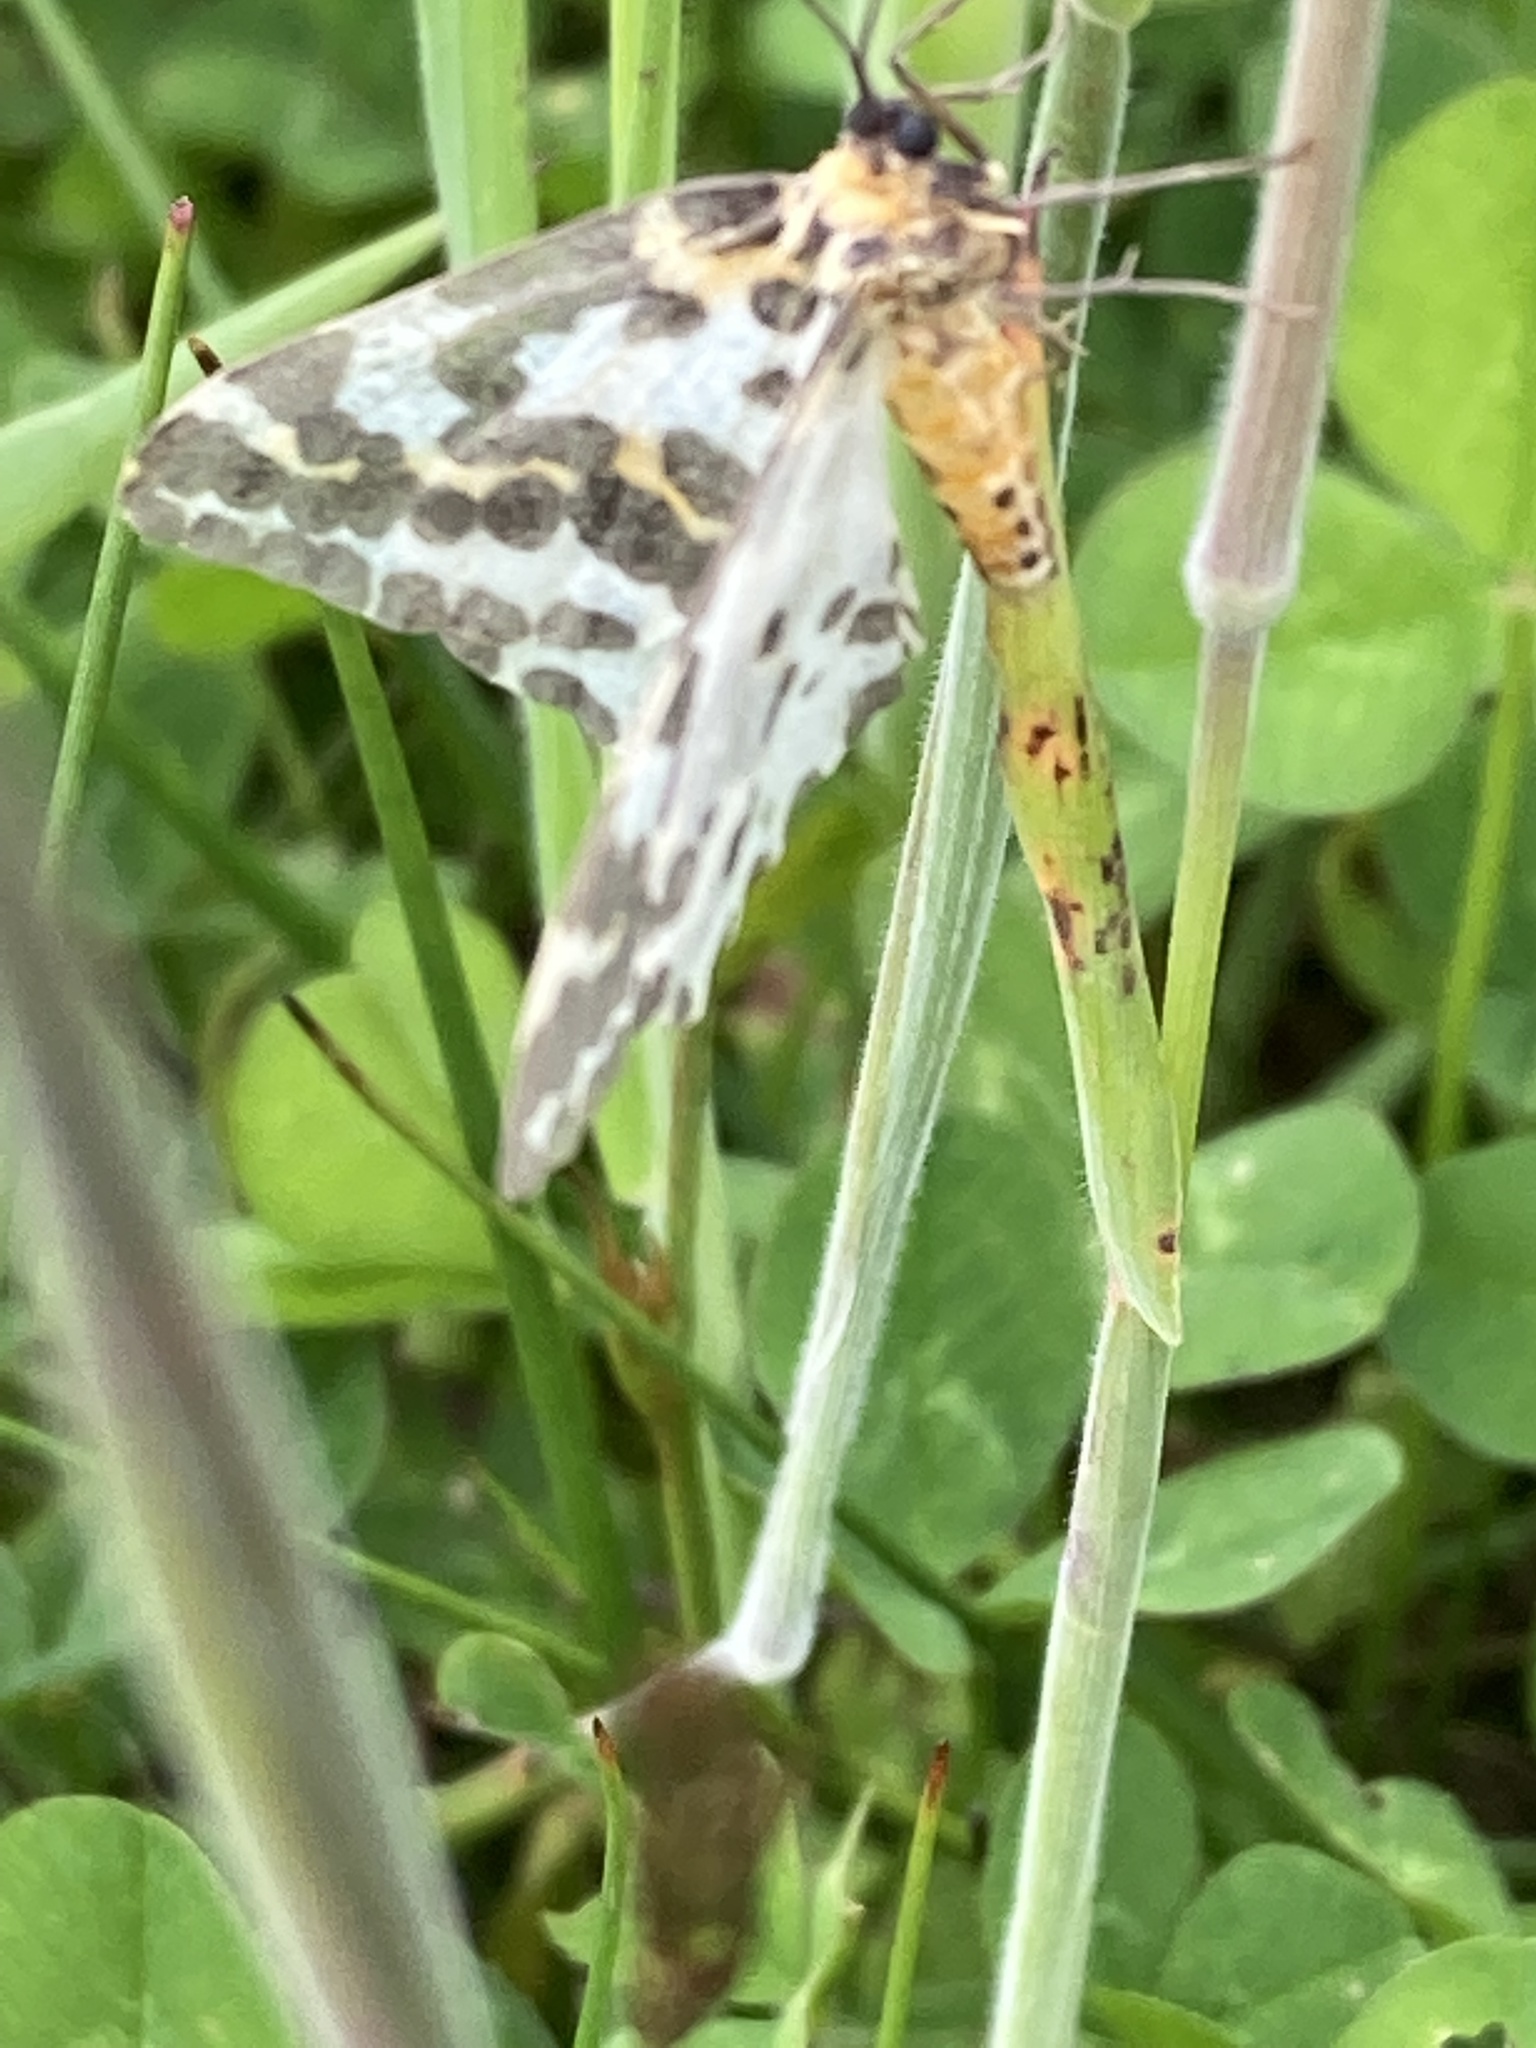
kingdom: Animalia
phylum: Arthropoda
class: Insecta
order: Lepidoptera
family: Geometridae
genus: Abraxas
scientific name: Abraxas grossulariata
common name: Magpie
